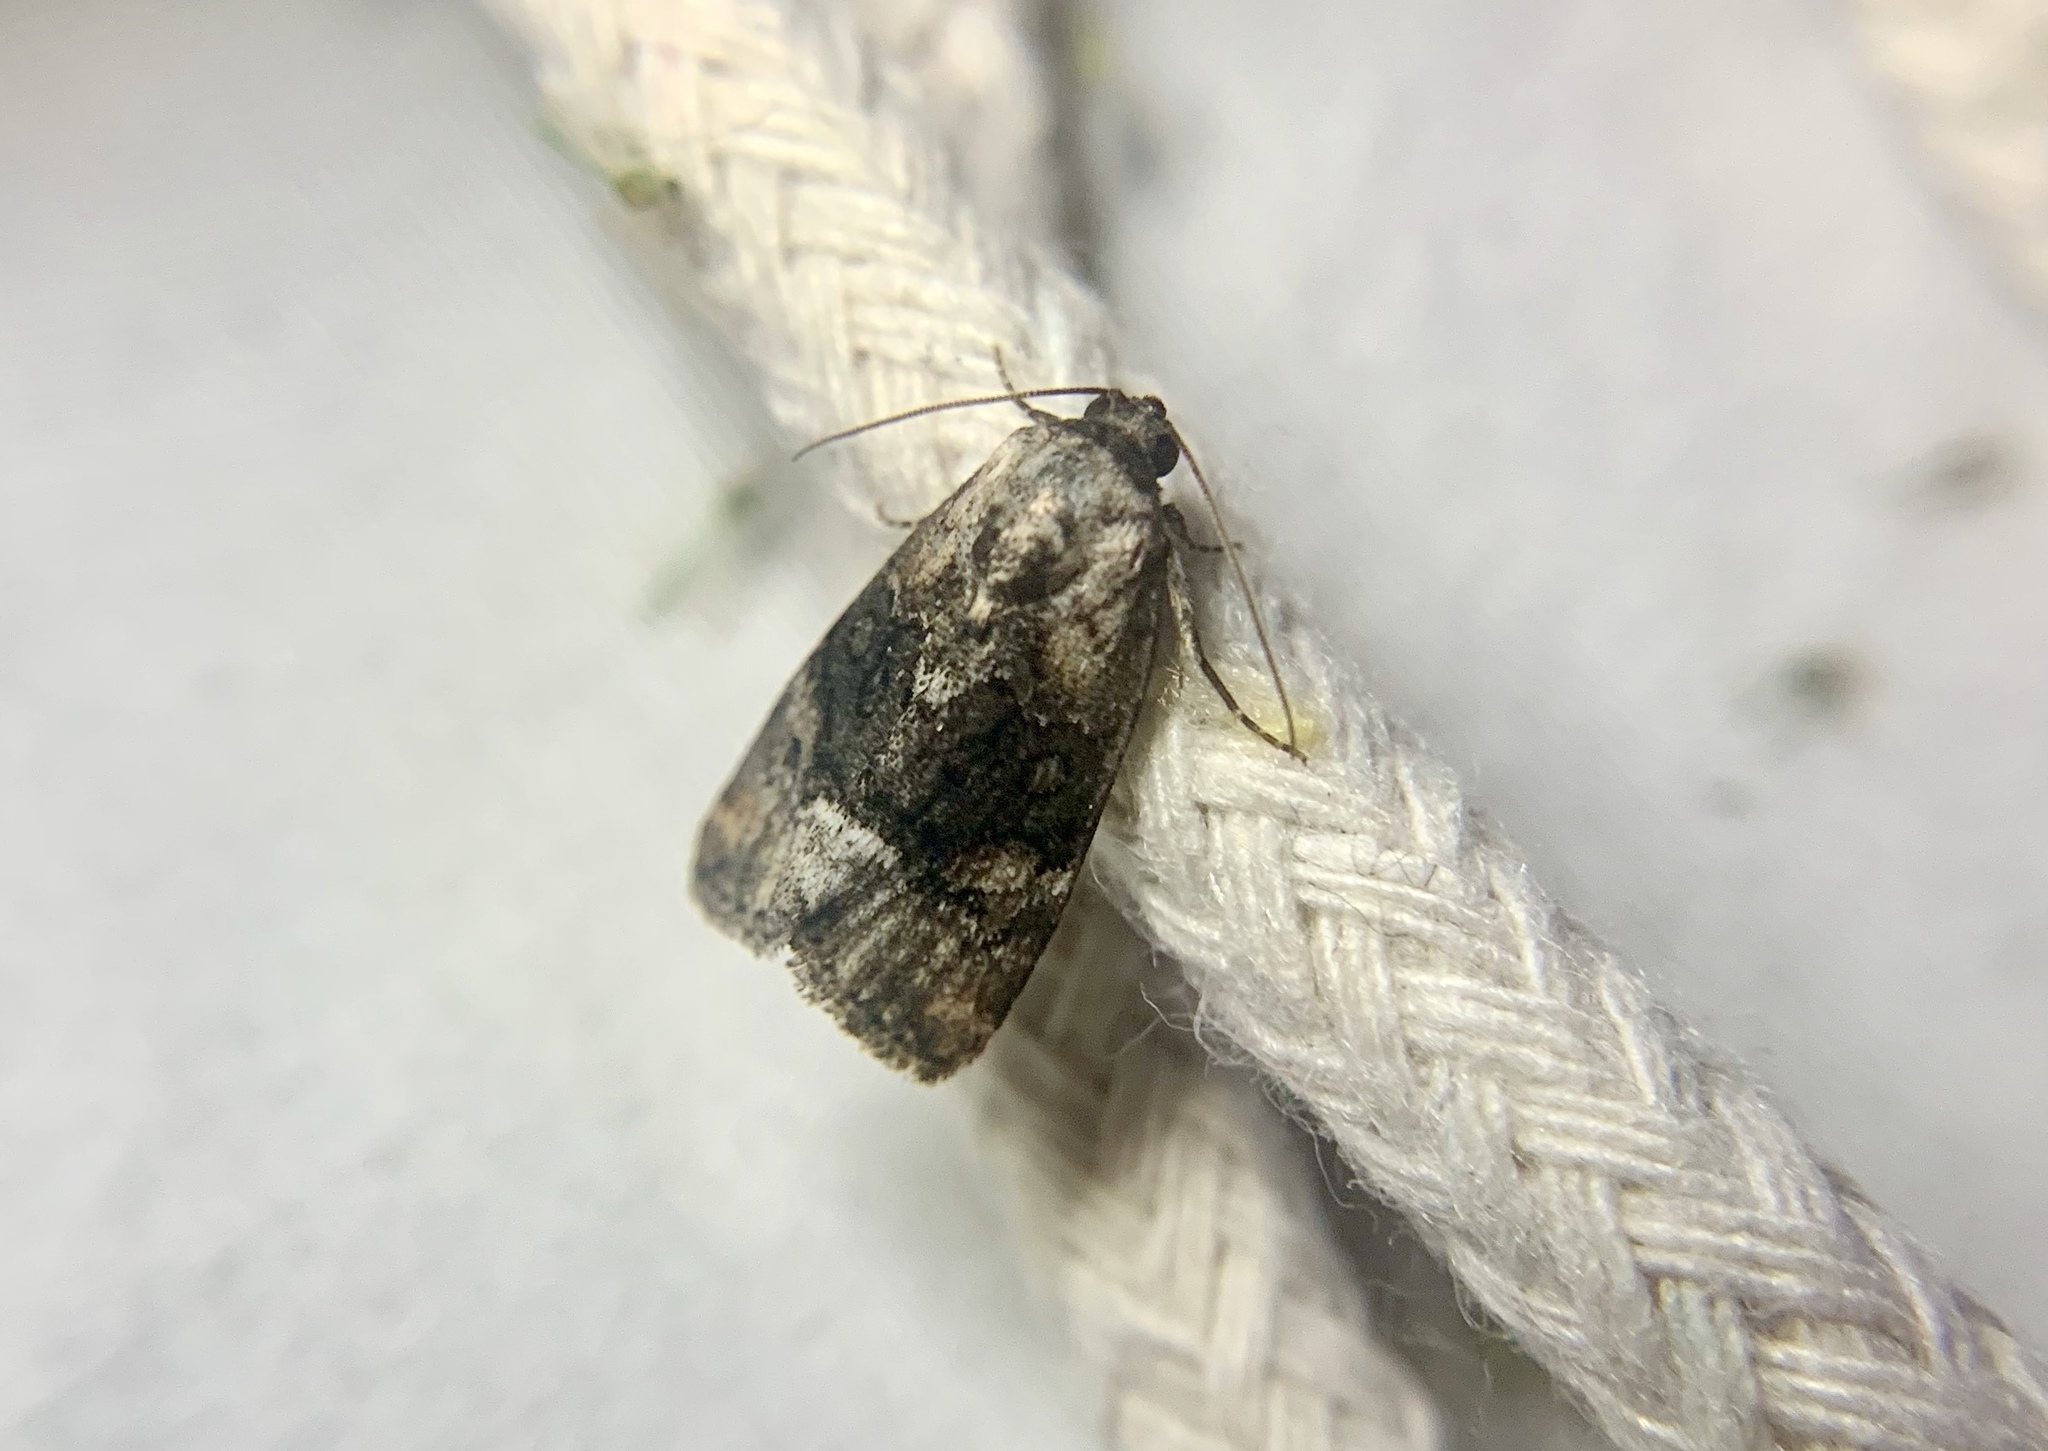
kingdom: Animalia
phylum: Arthropoda
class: Insecta
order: Lepidoptera
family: Noctuidae
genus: Elaphria
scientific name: Elaphria georgei
